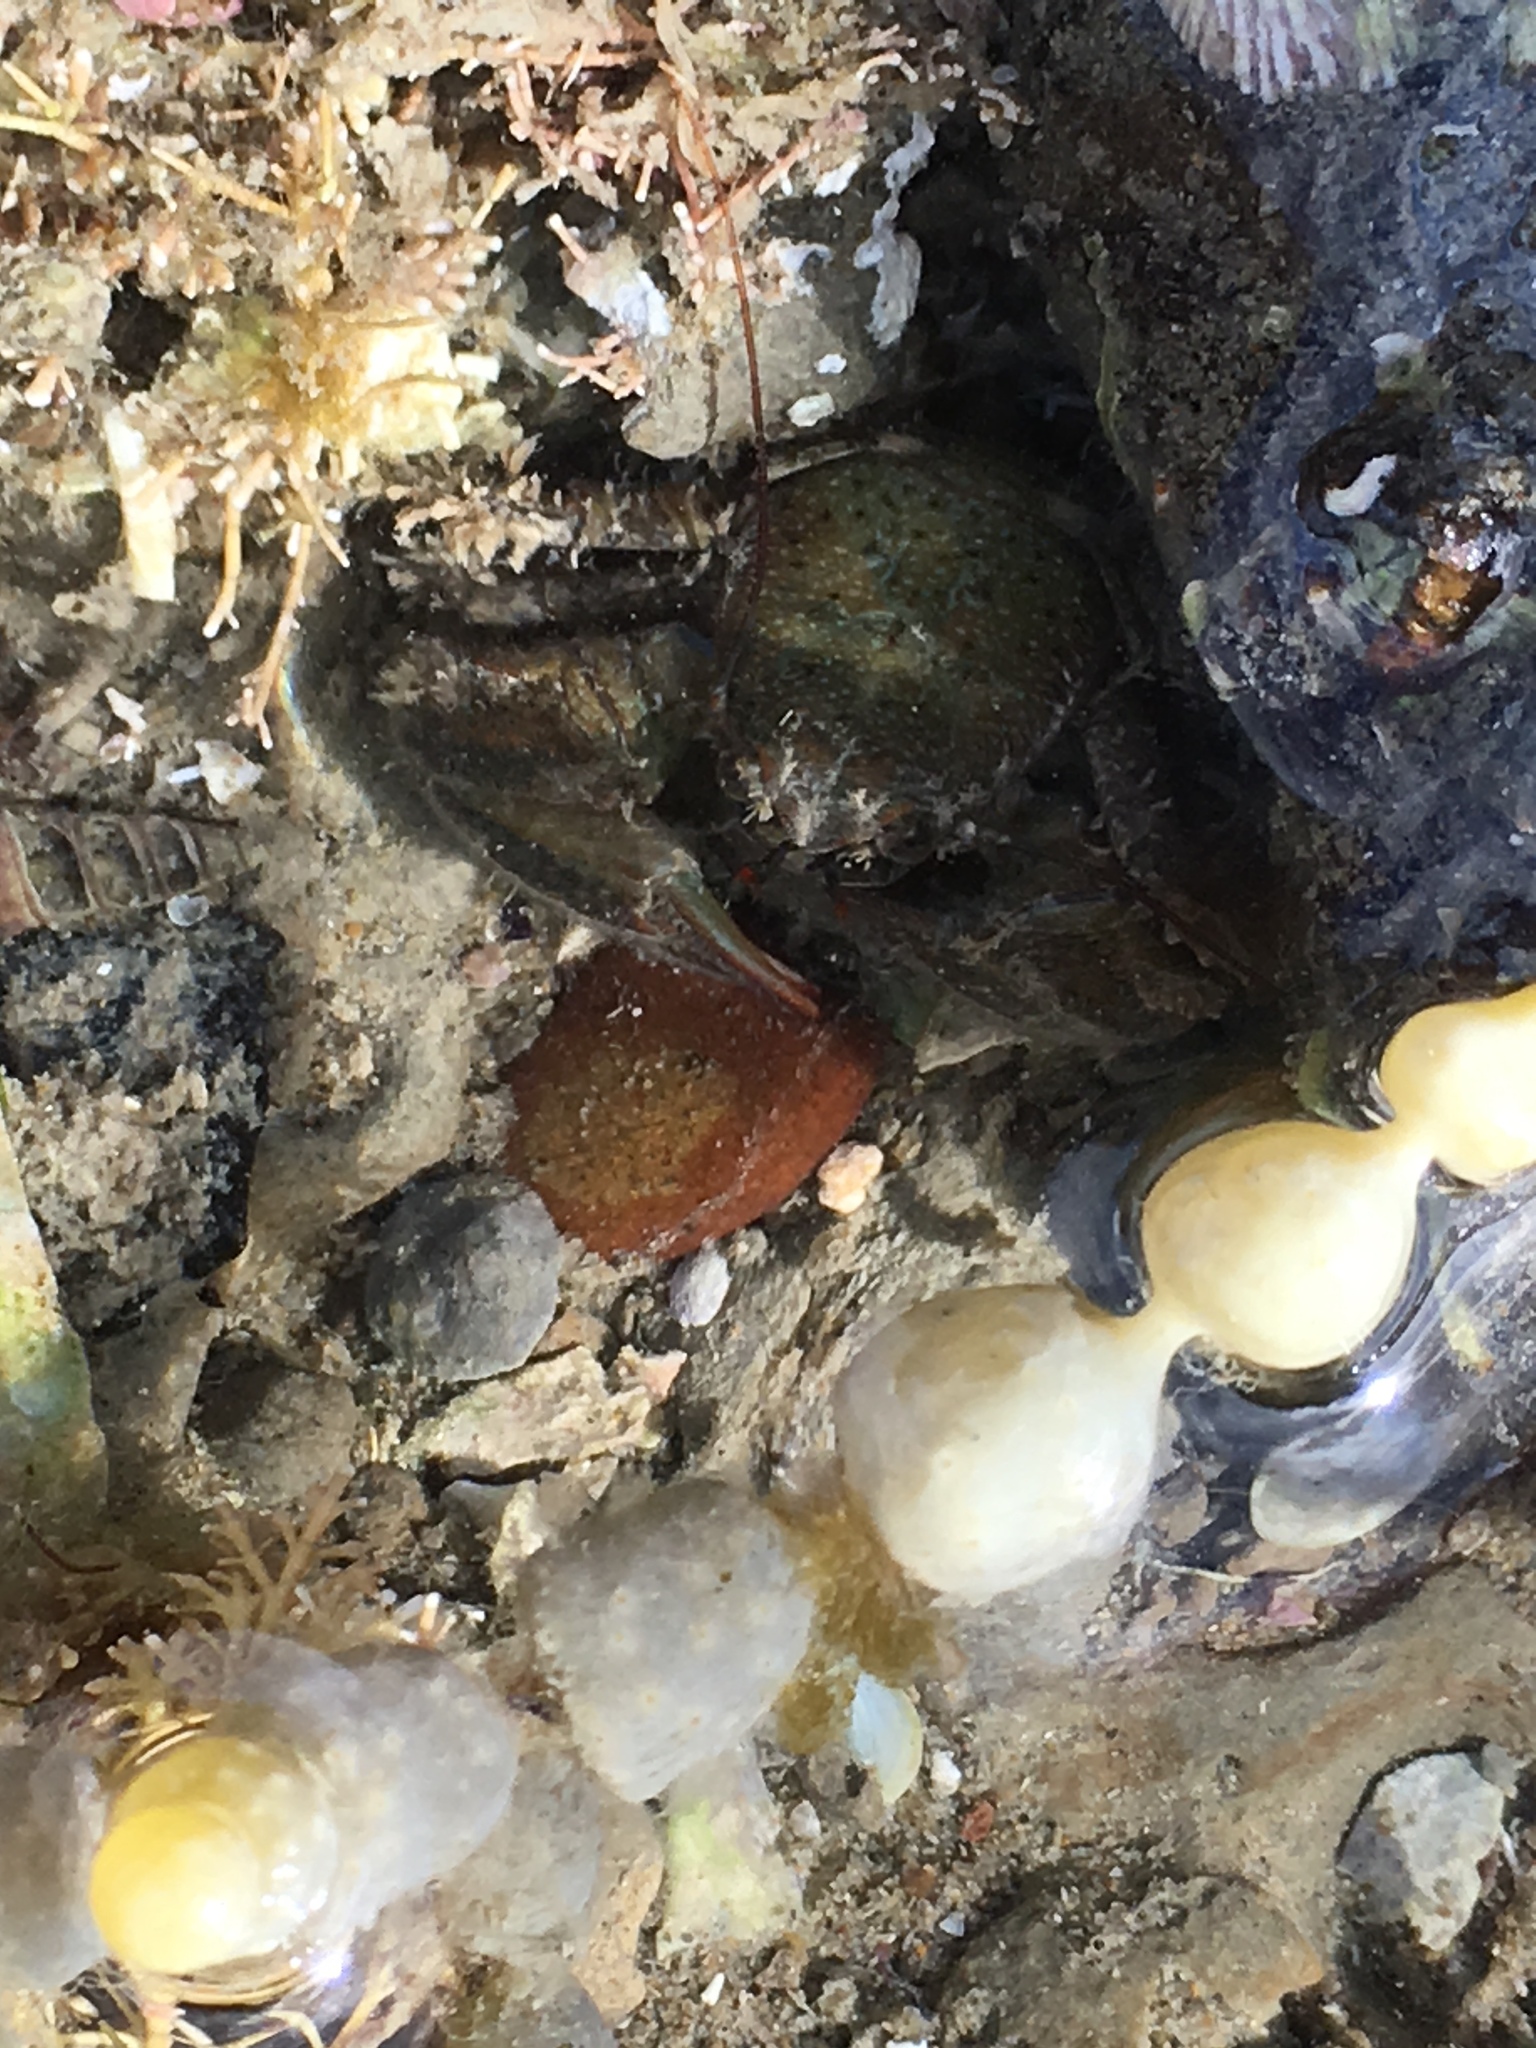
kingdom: Animalia
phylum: Arthropoda
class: Malacostraca
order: Decapoda
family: Porcellanidae
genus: Petrolisthes
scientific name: Petrolisthes elongatus
